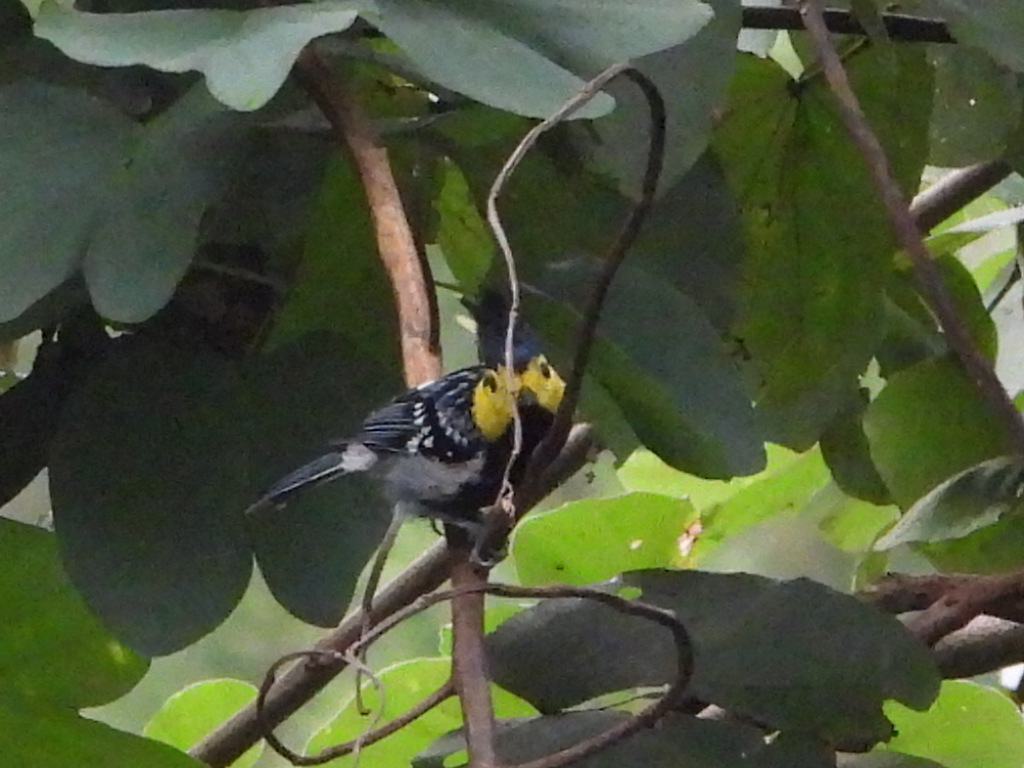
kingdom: Animalia
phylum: Chordata
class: Aves
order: Passeriformes
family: Paridae
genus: Parus
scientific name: Parus spilonotus
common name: Yellow-cheeked tit
